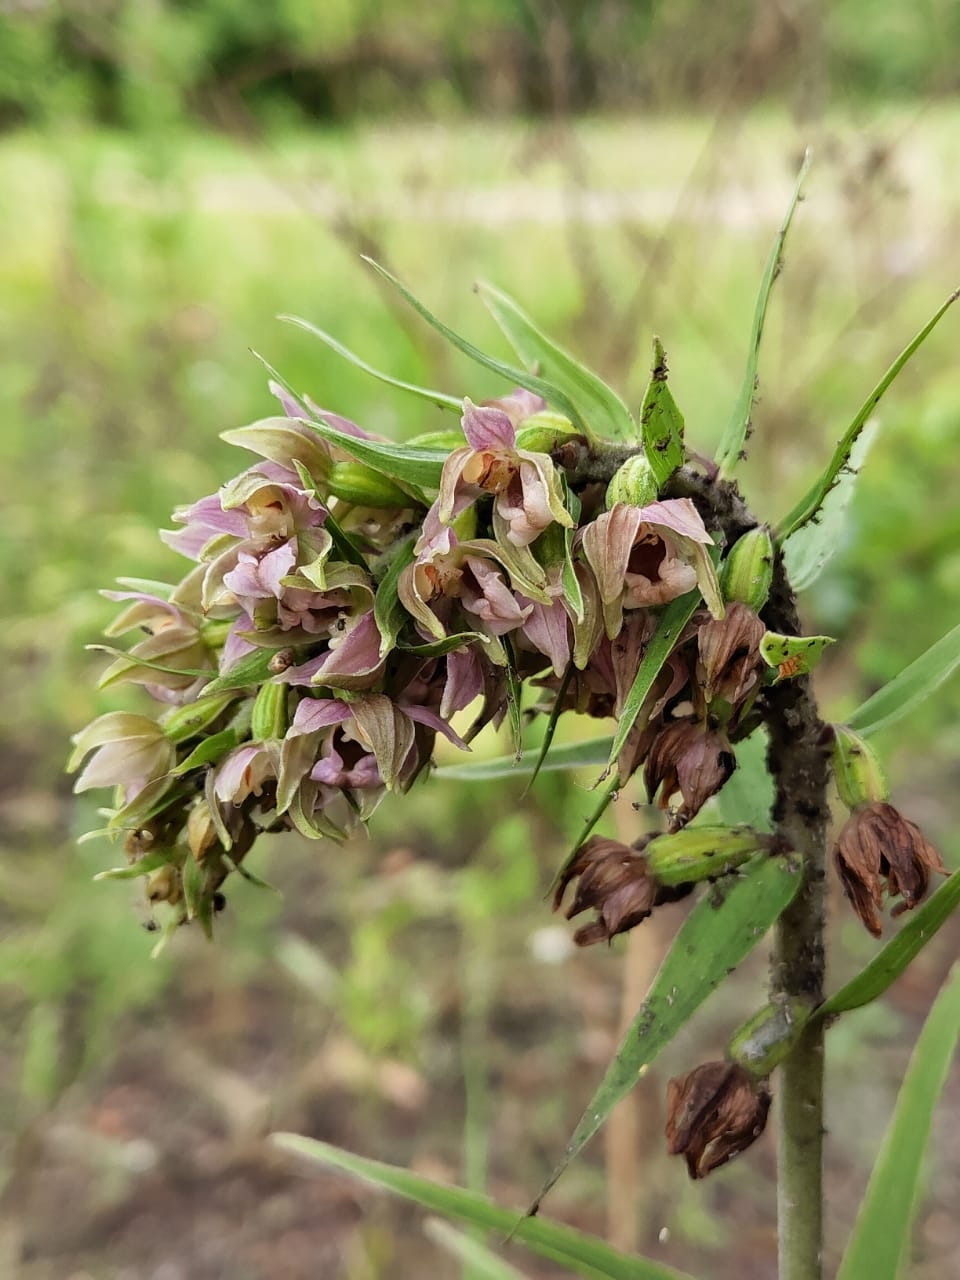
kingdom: Plantae
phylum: Tracheophyta
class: Liliopsida
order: Asparagales
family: Orchidaceae
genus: Epipactis
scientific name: Epipactis helleborine
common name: Broad-leaved helleborine
